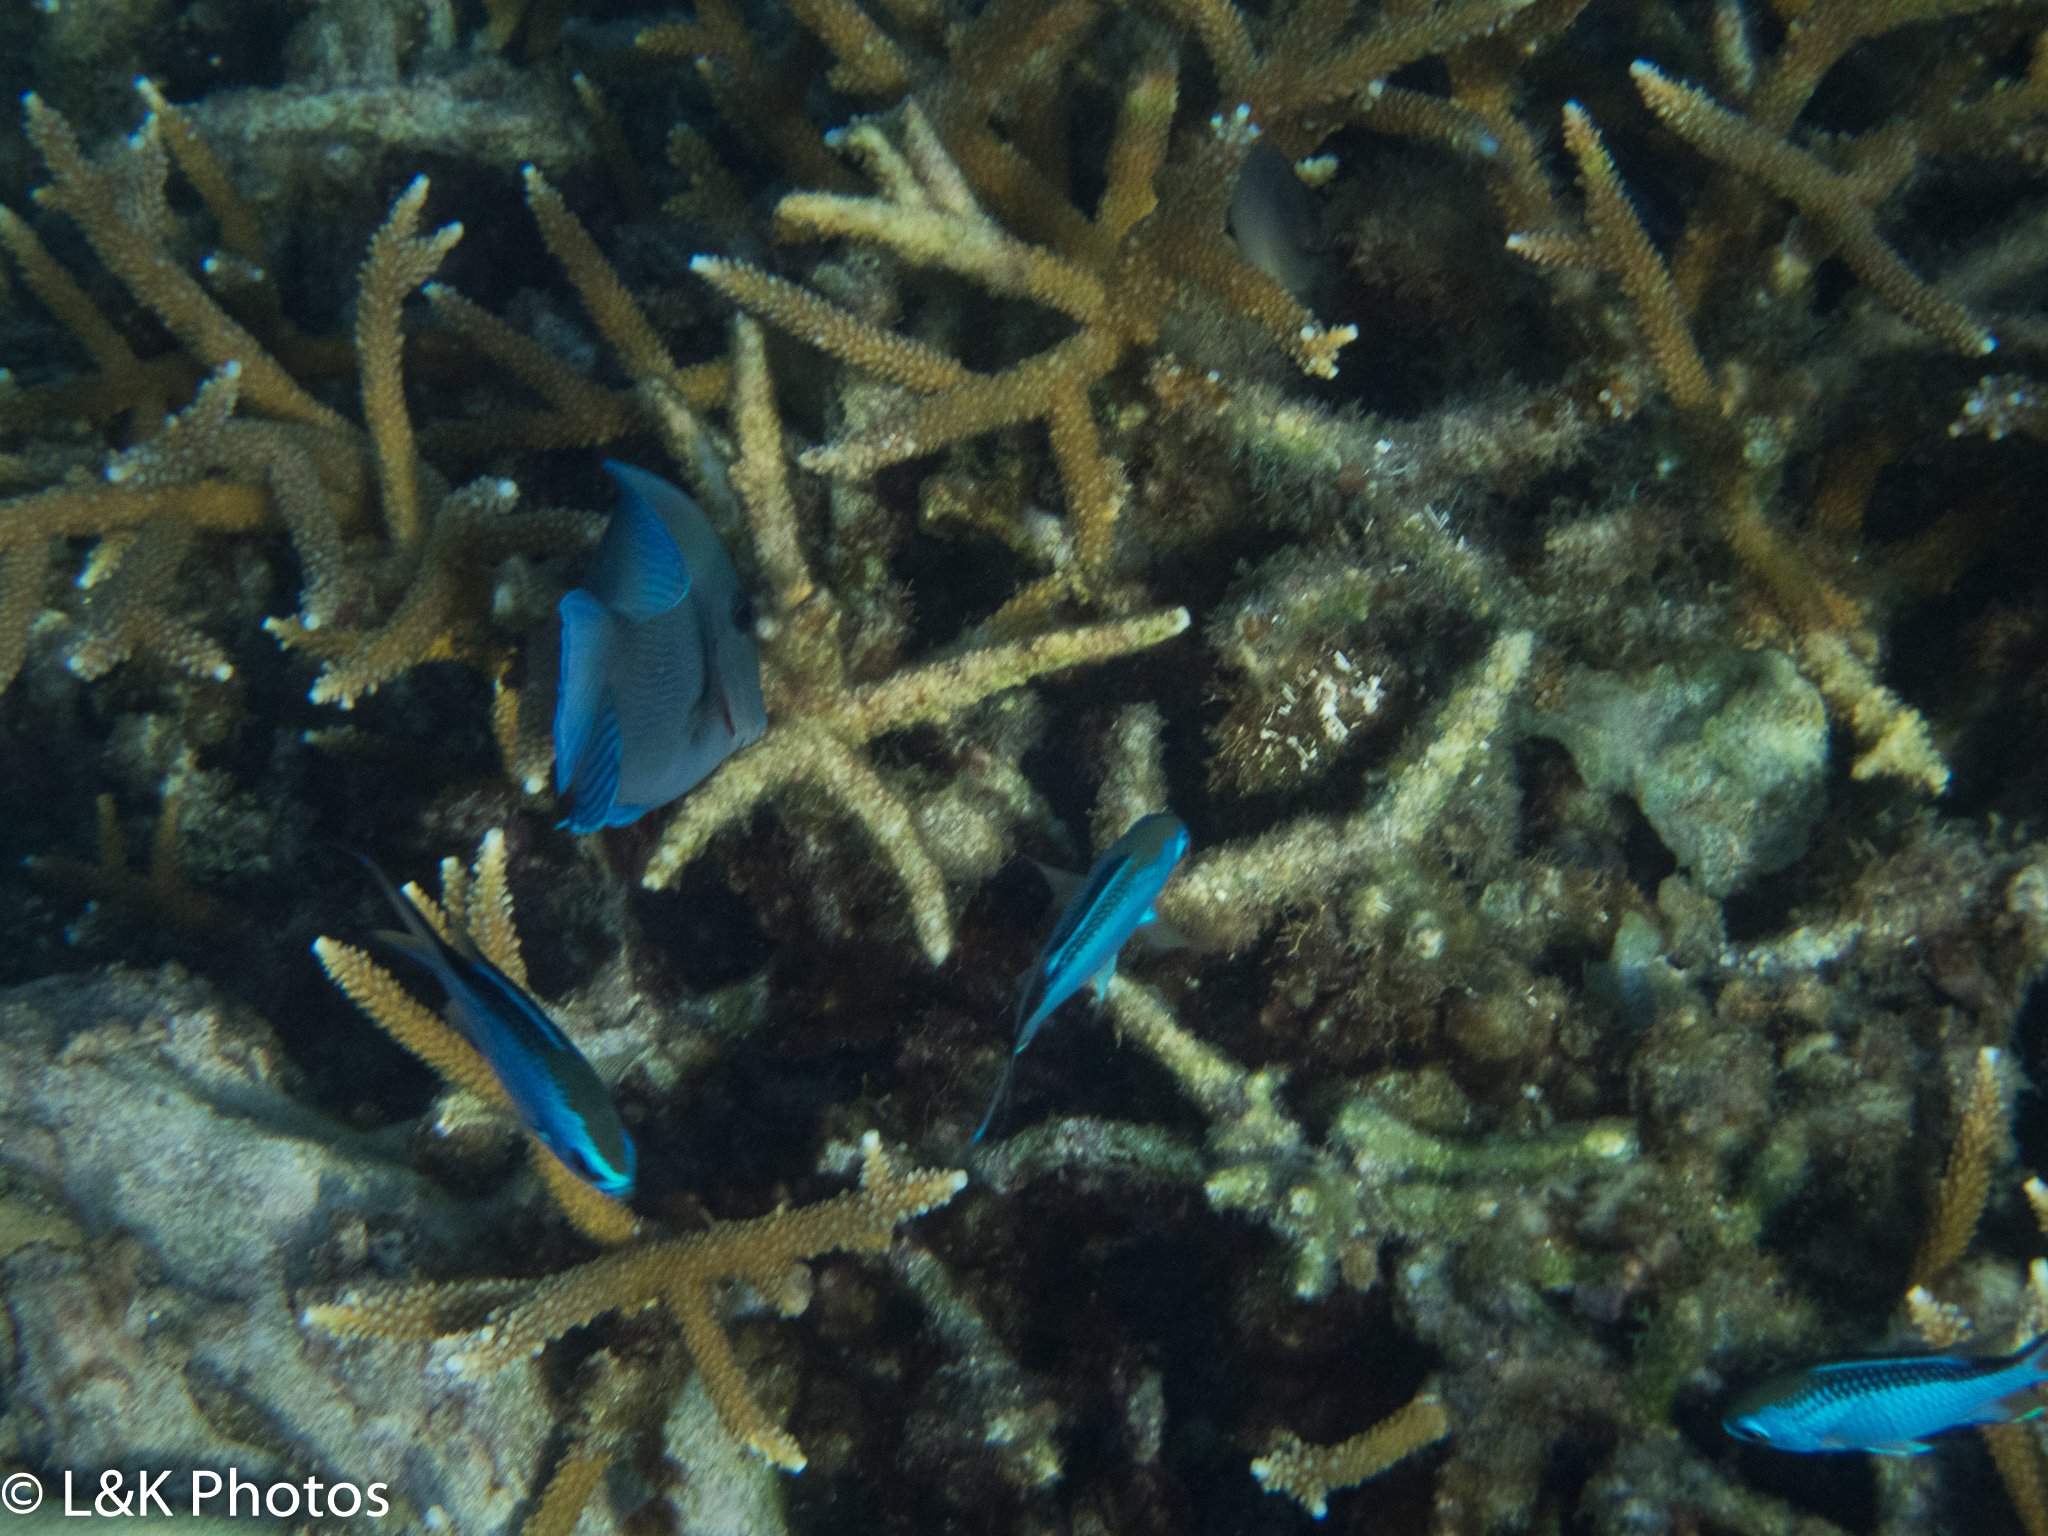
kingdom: Animalia
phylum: Chordata
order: Perciformes
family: Pomacentridae
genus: Chromis
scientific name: Chromis cyanea
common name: Blue chromis
